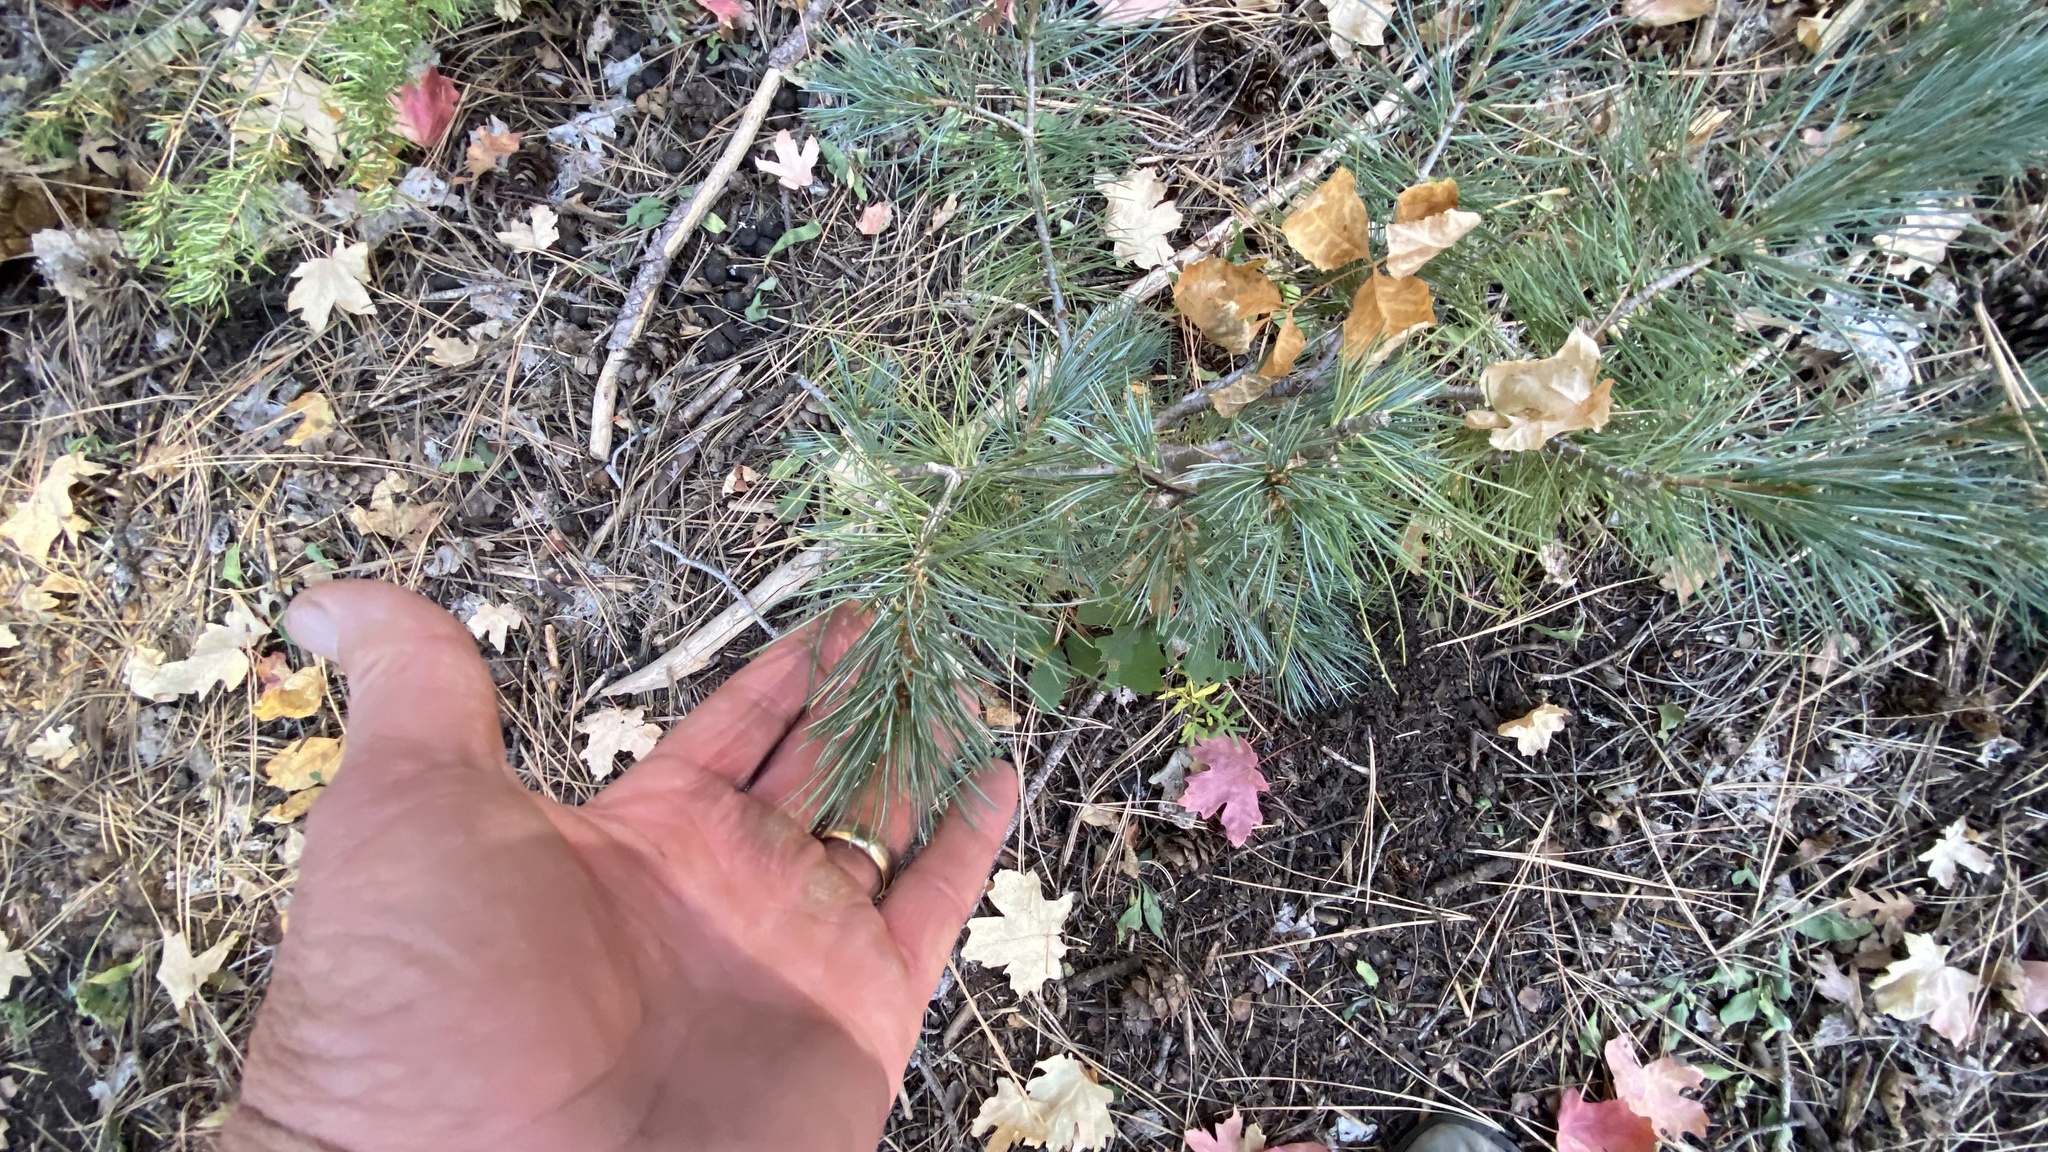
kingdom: Plantae
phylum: Tracheophyta
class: Pinopsida
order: Pinales
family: Pinaceae
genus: Pinus
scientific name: Pinus strobiformis
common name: Southwestern white pine
